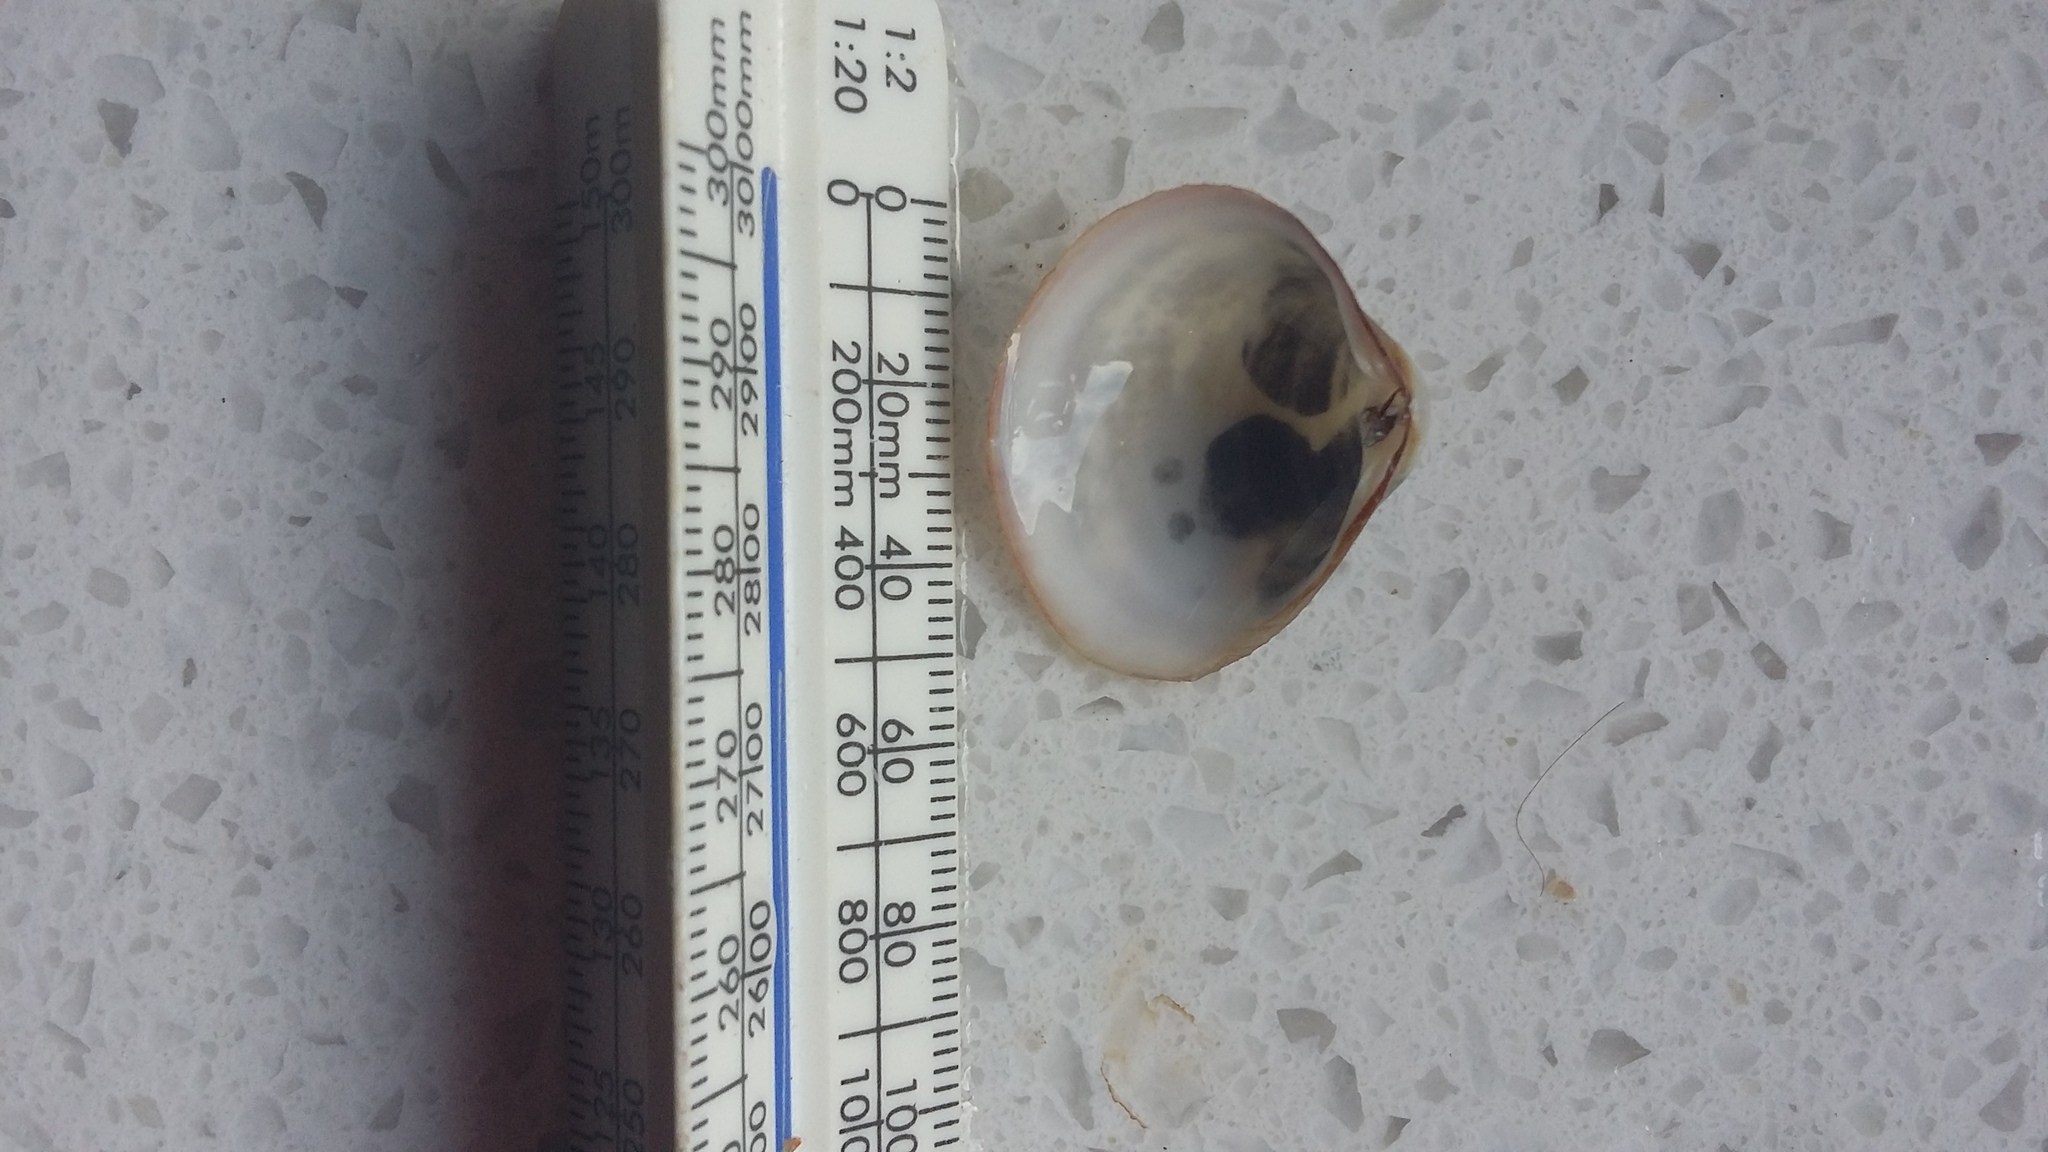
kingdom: Animalia
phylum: Mollusca
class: Bivalvia
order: Venerida
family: Mactridae
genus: Cyclomactra
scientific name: Cyclomactra ovata
